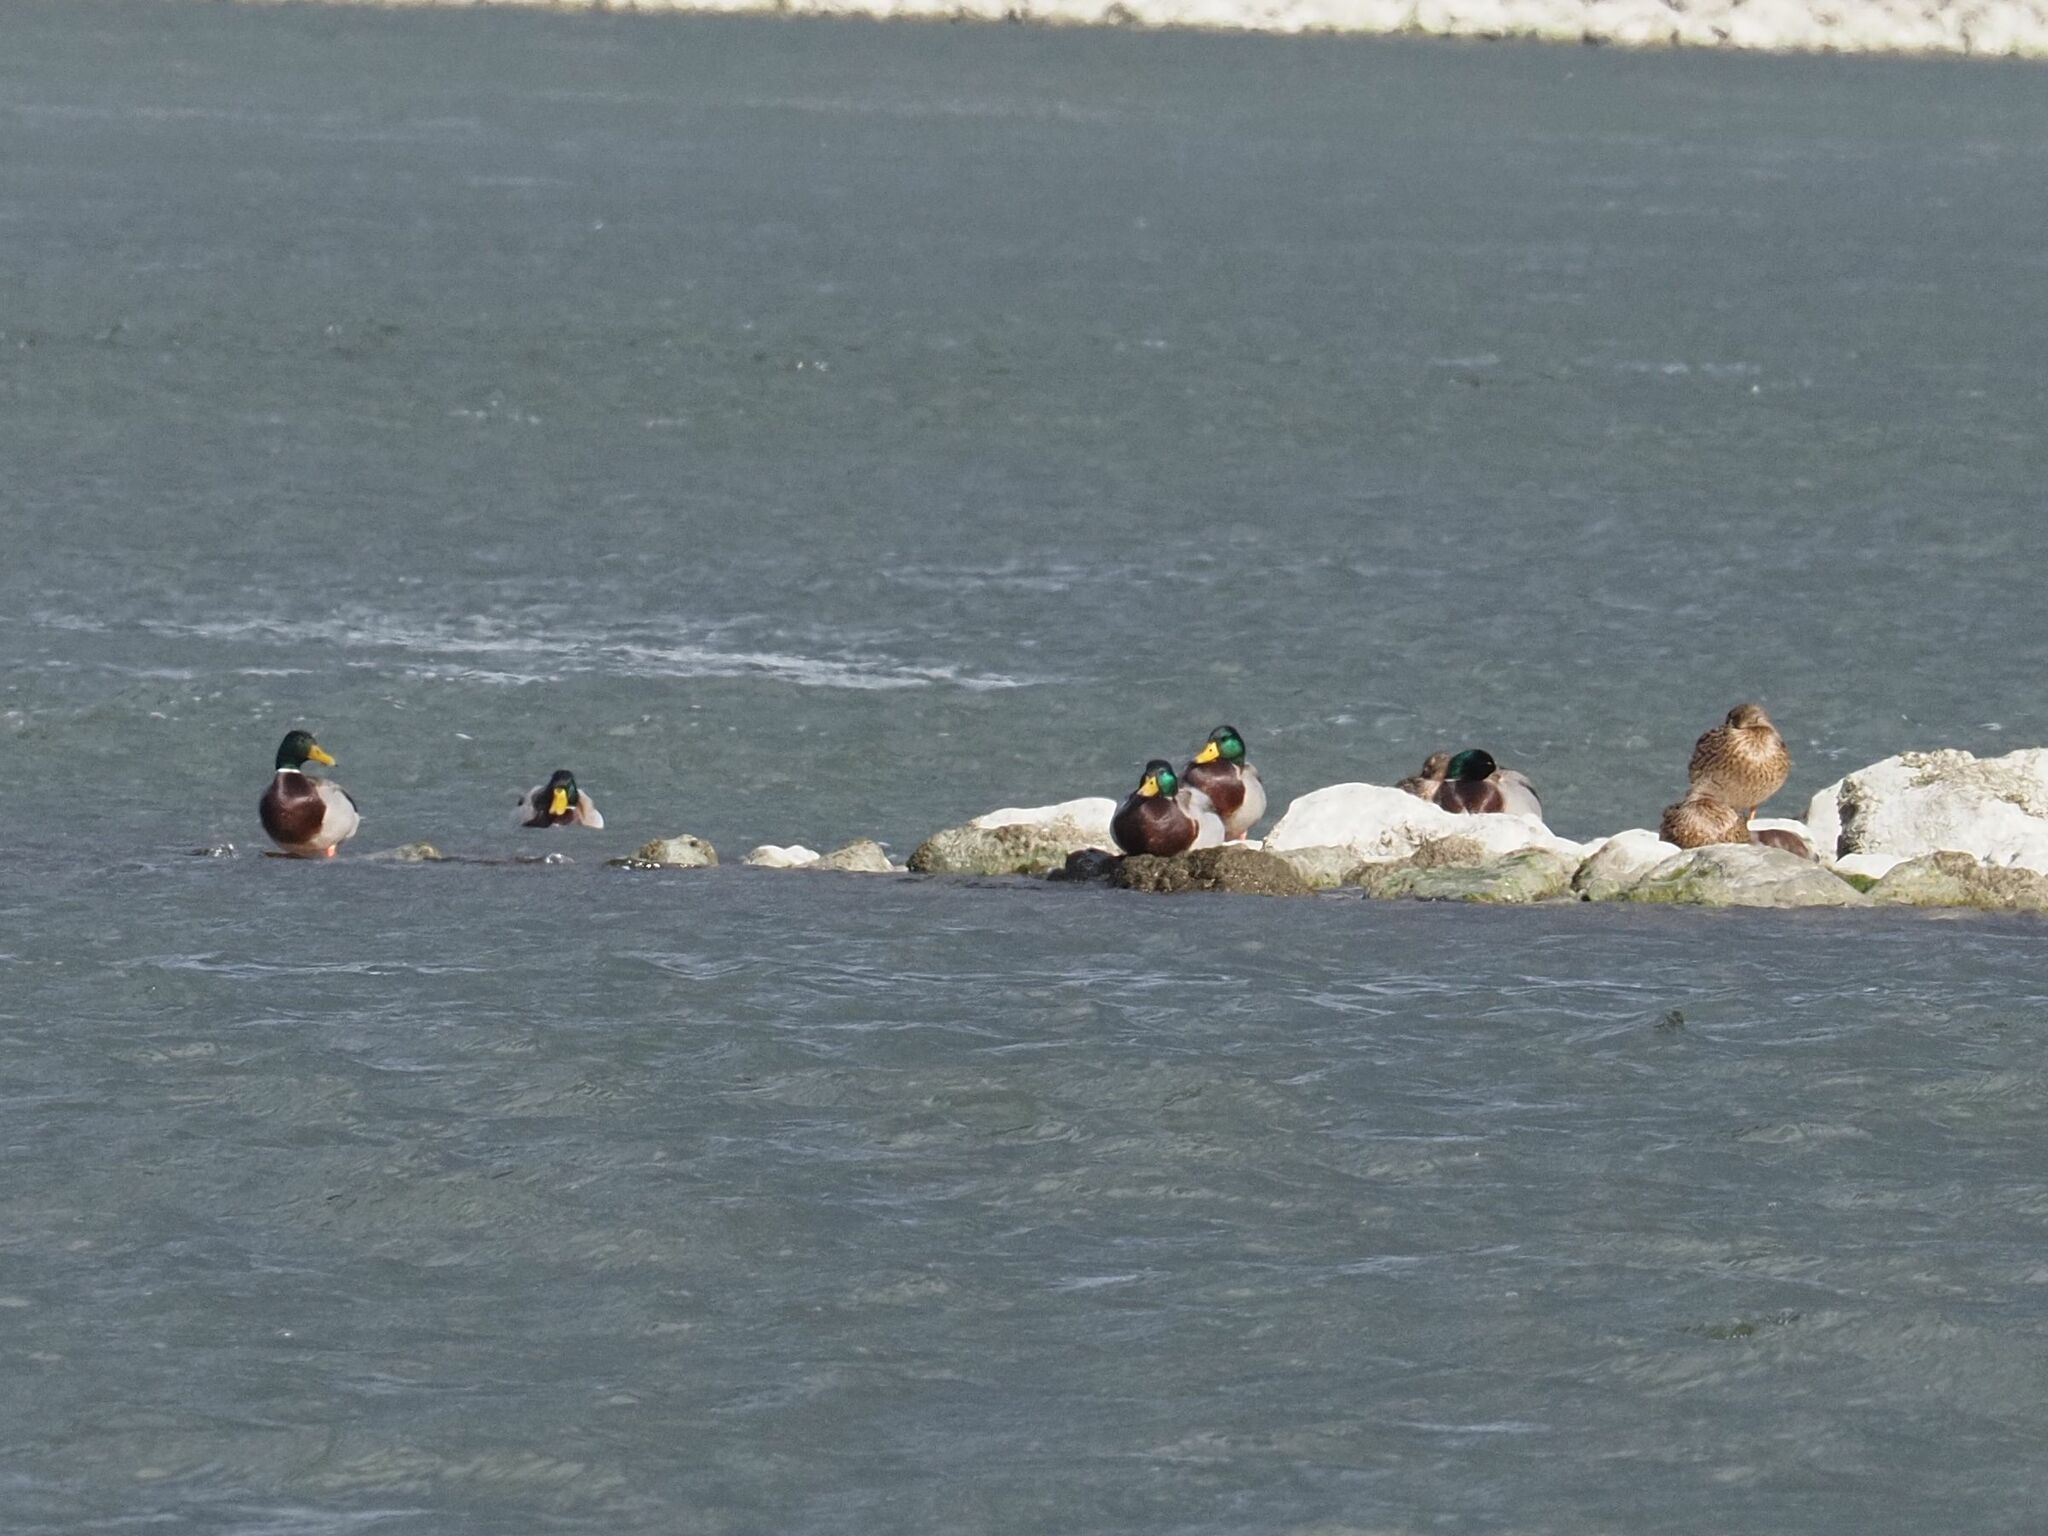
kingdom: Animalia
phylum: Chordata
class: Aves
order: Anseriformes
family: Anatidae
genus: Anas
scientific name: Anas platyrhynchos
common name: Mallard
